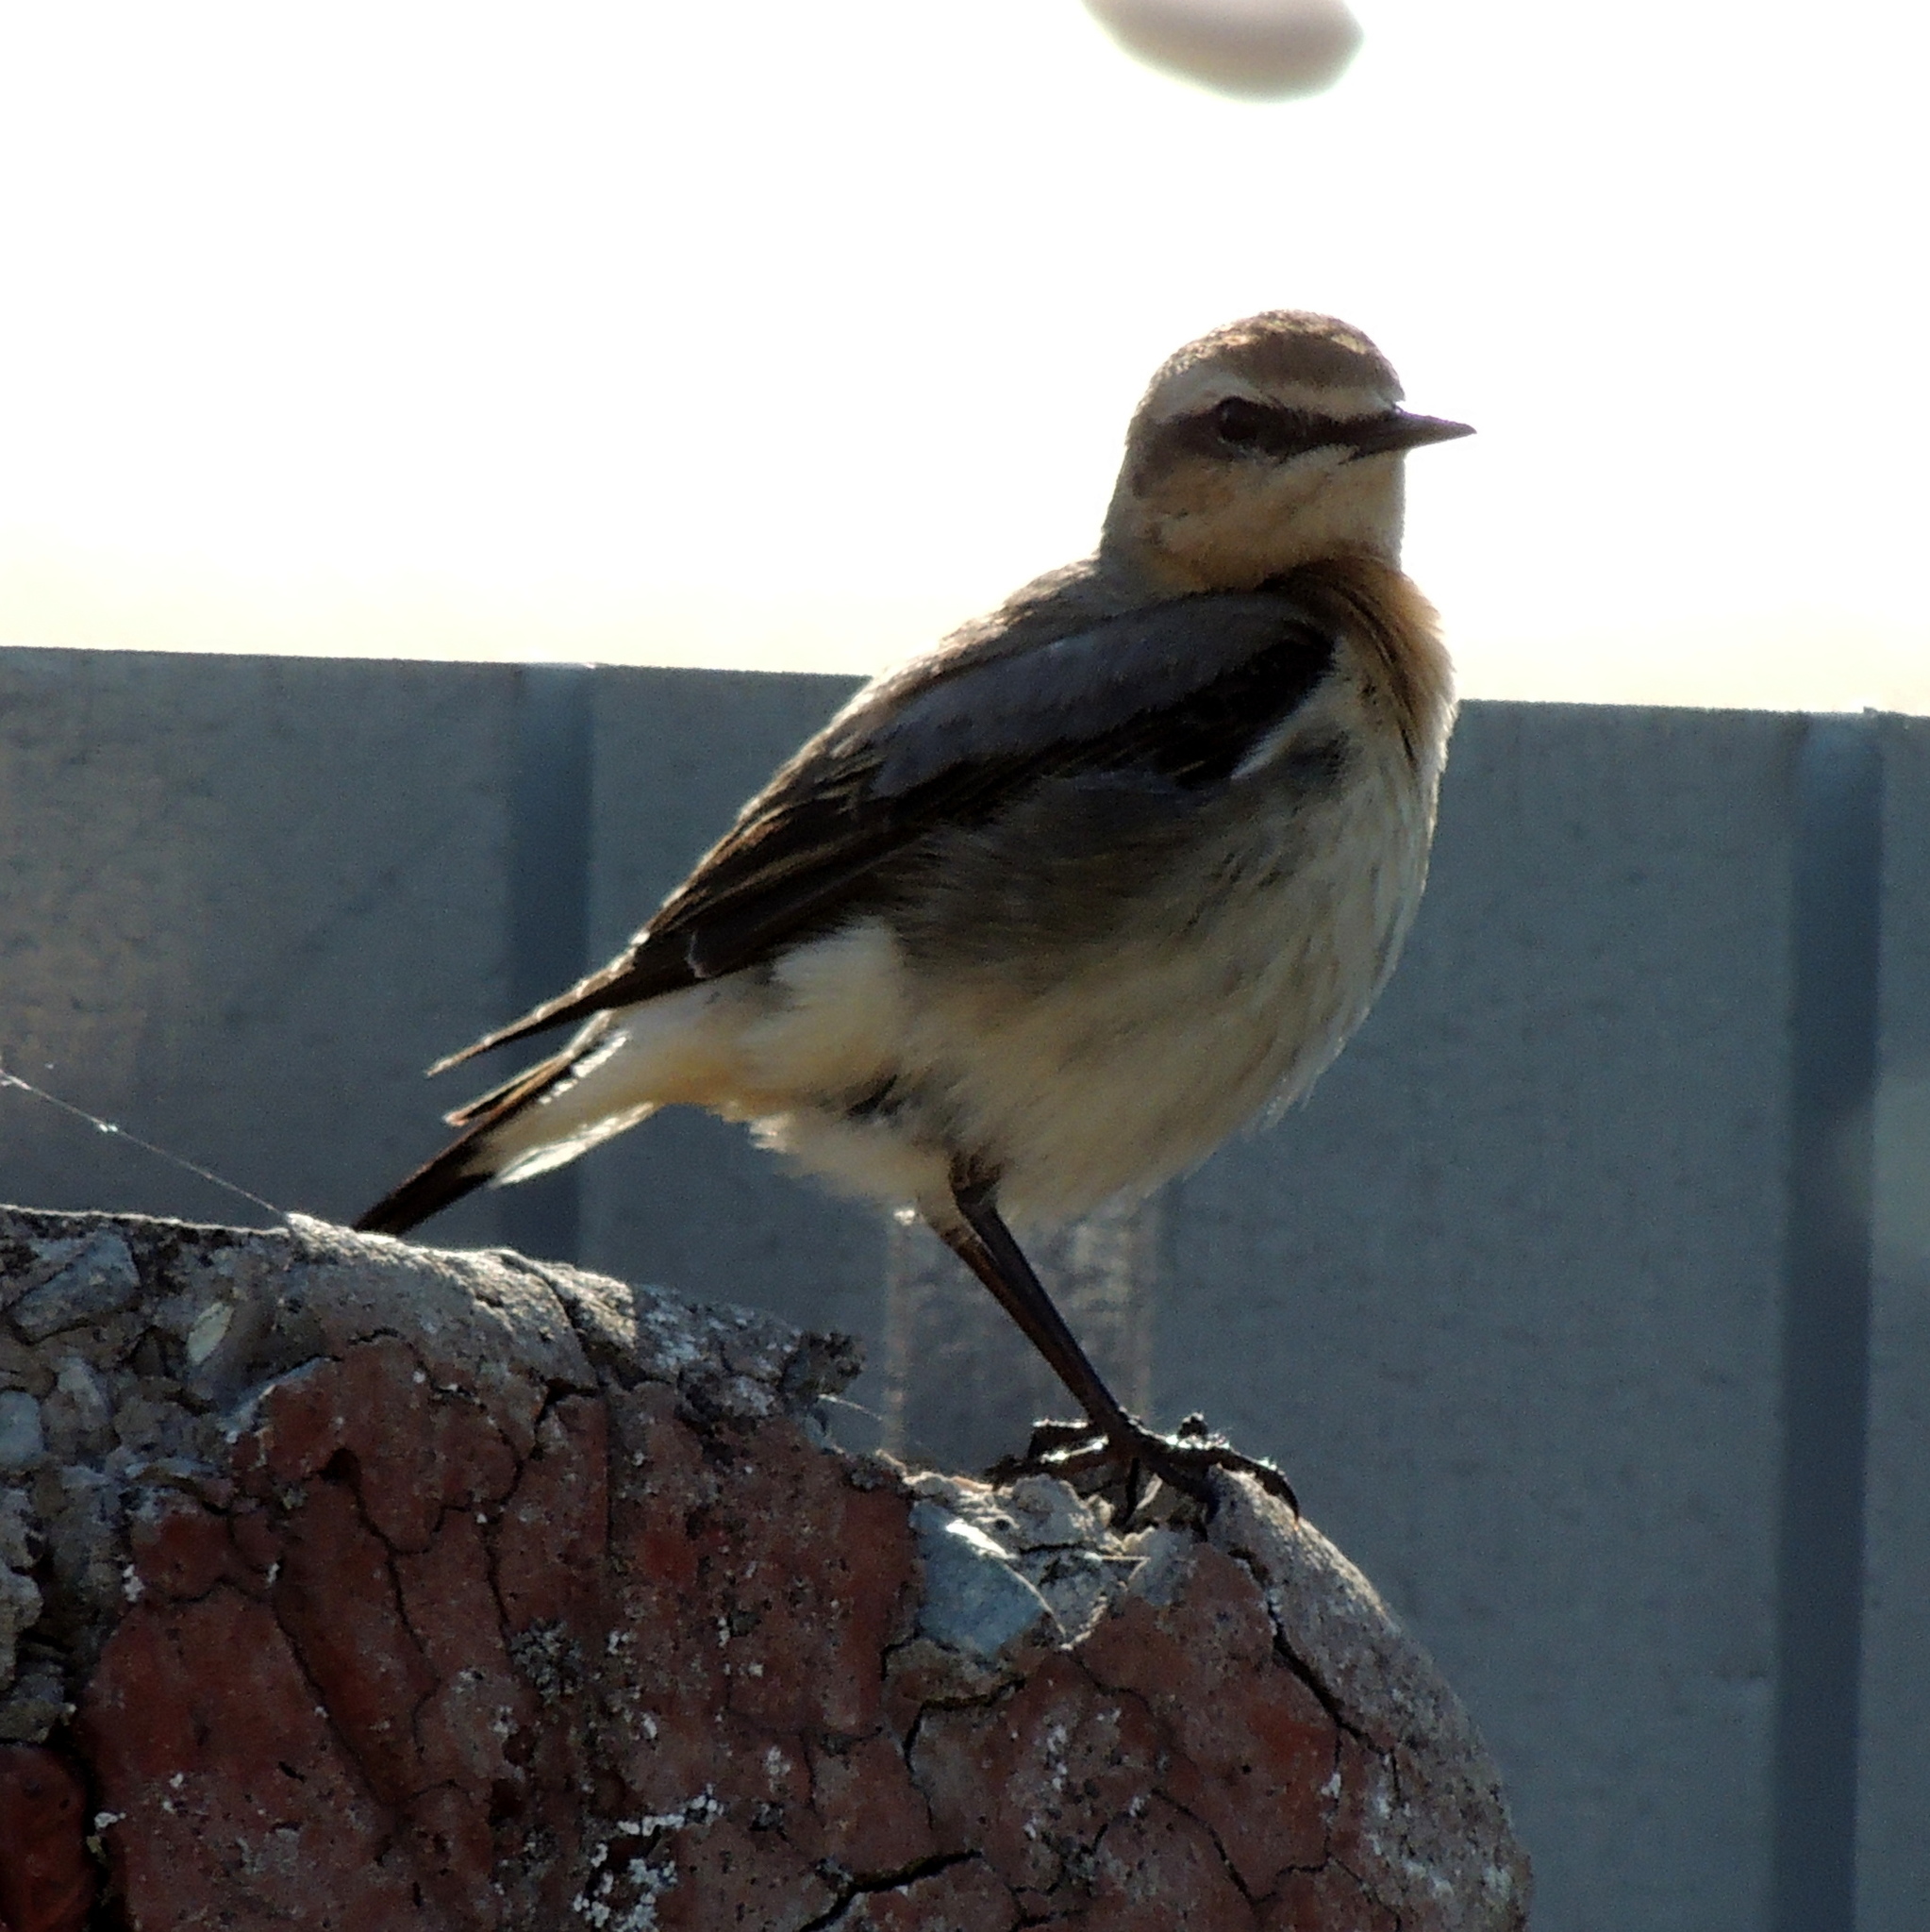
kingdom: Animalia
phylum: Chordata
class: Aves
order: Passeriformes
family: Muscicapidae
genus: Oenanthe
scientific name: Oenanthe oenanthe
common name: Northern wheatear
